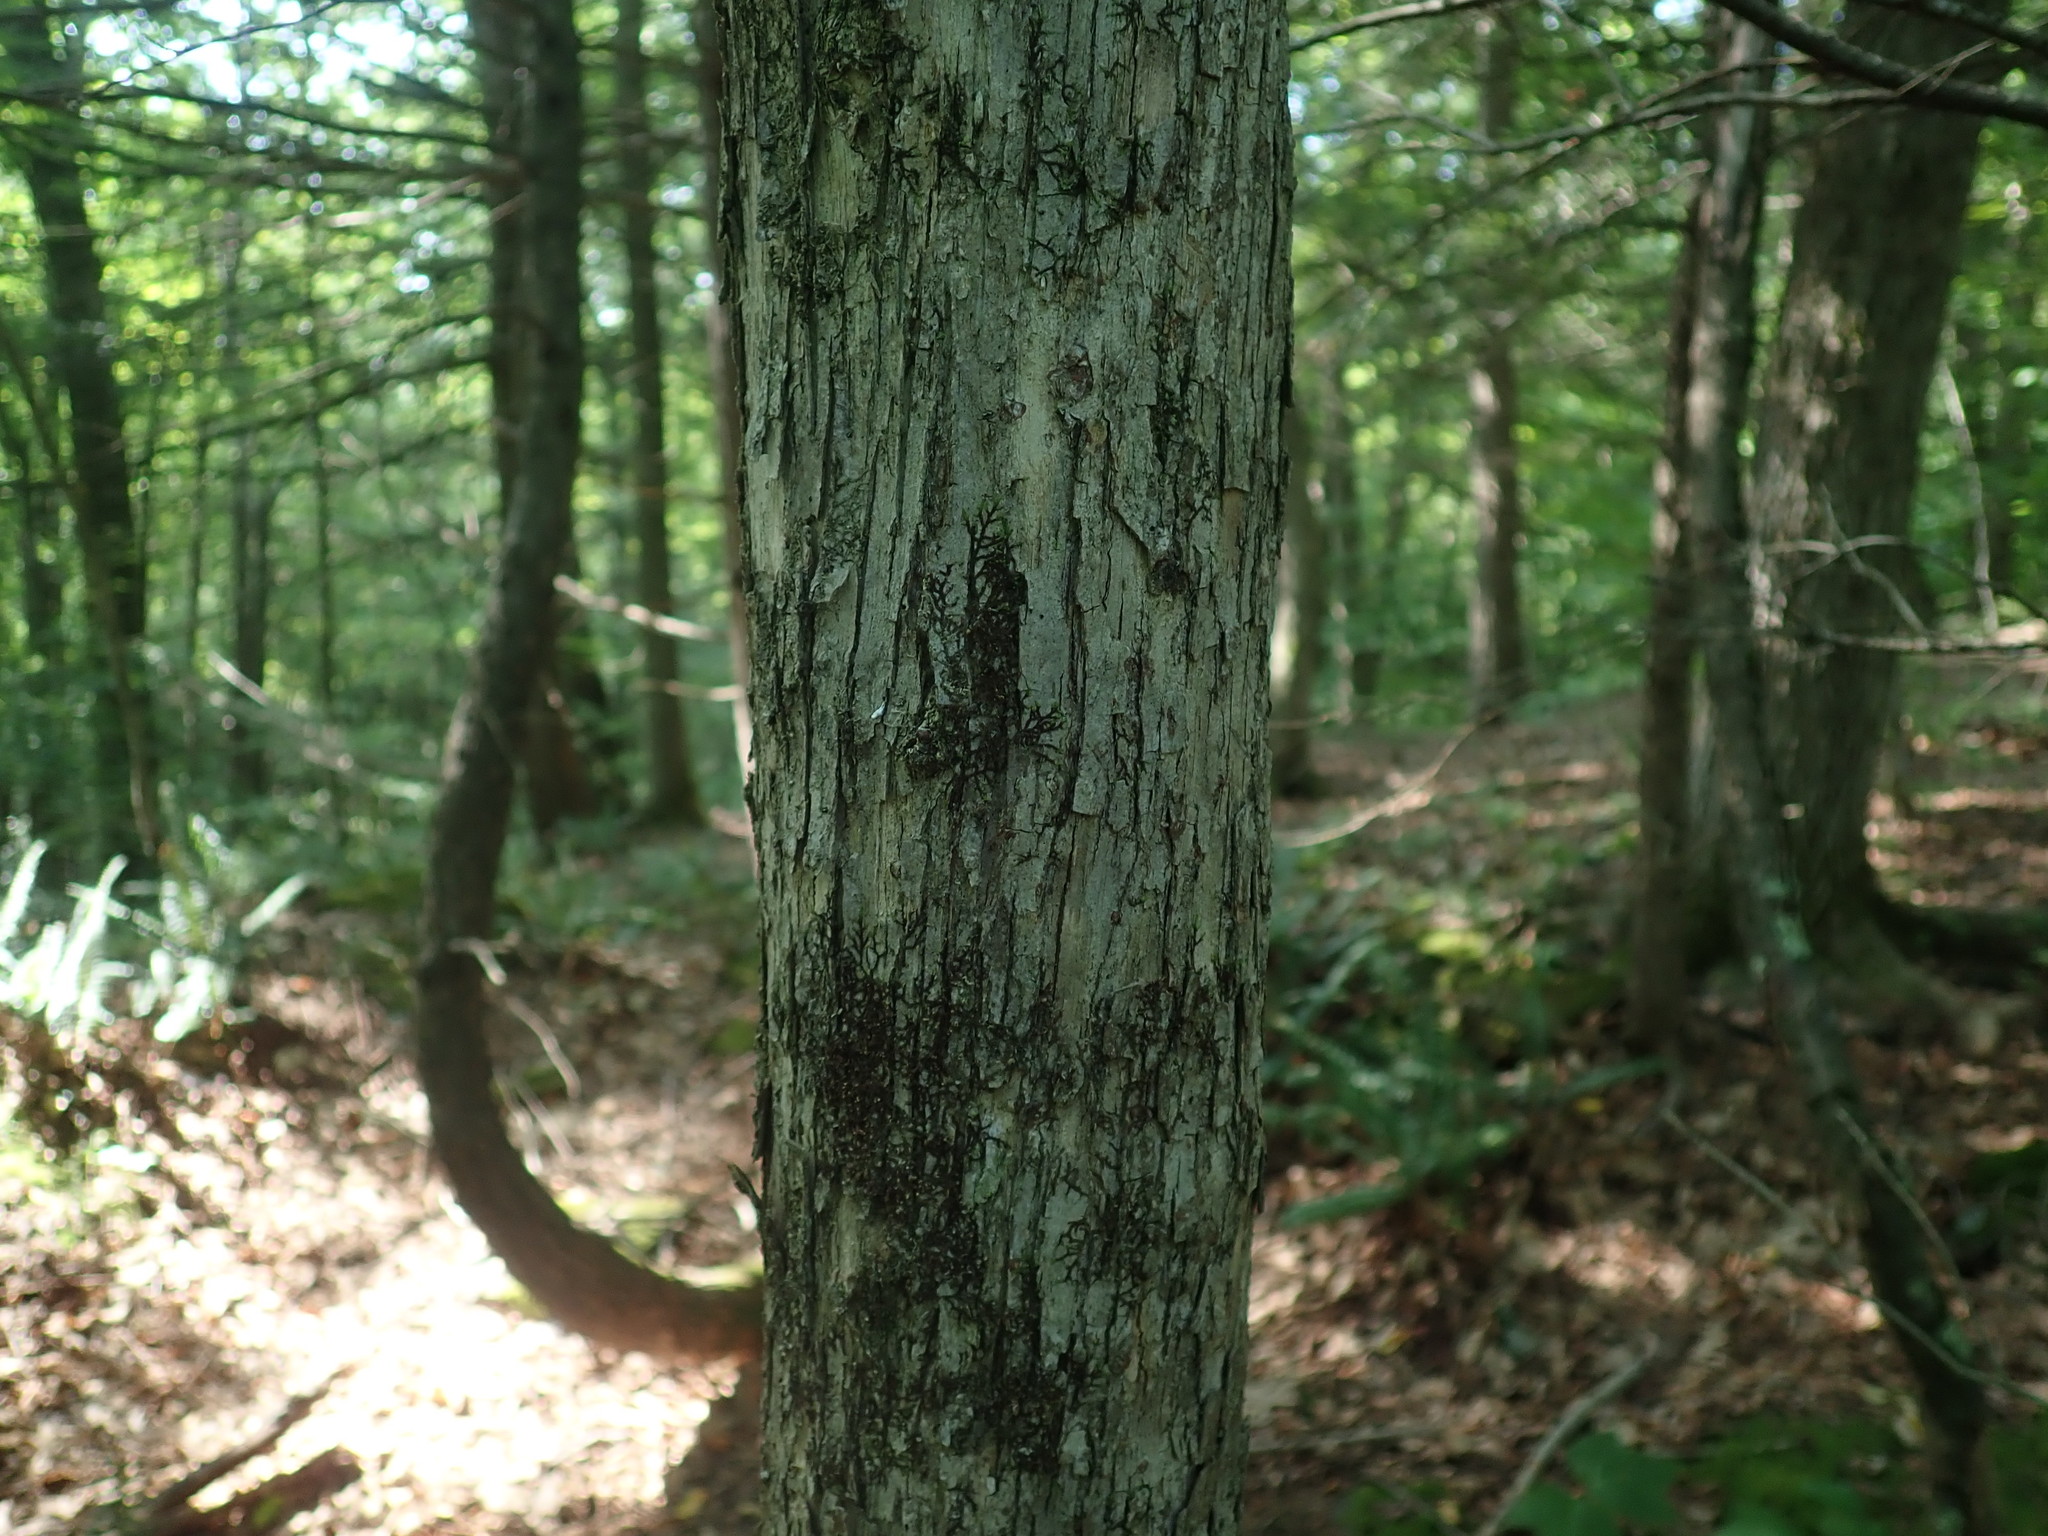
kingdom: Plantae
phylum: Tracheophyta
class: Magnoliopsida
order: Fagales
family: Betulaceae
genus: Ostrya
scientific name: Ostrya virginiana
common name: Ironwood
